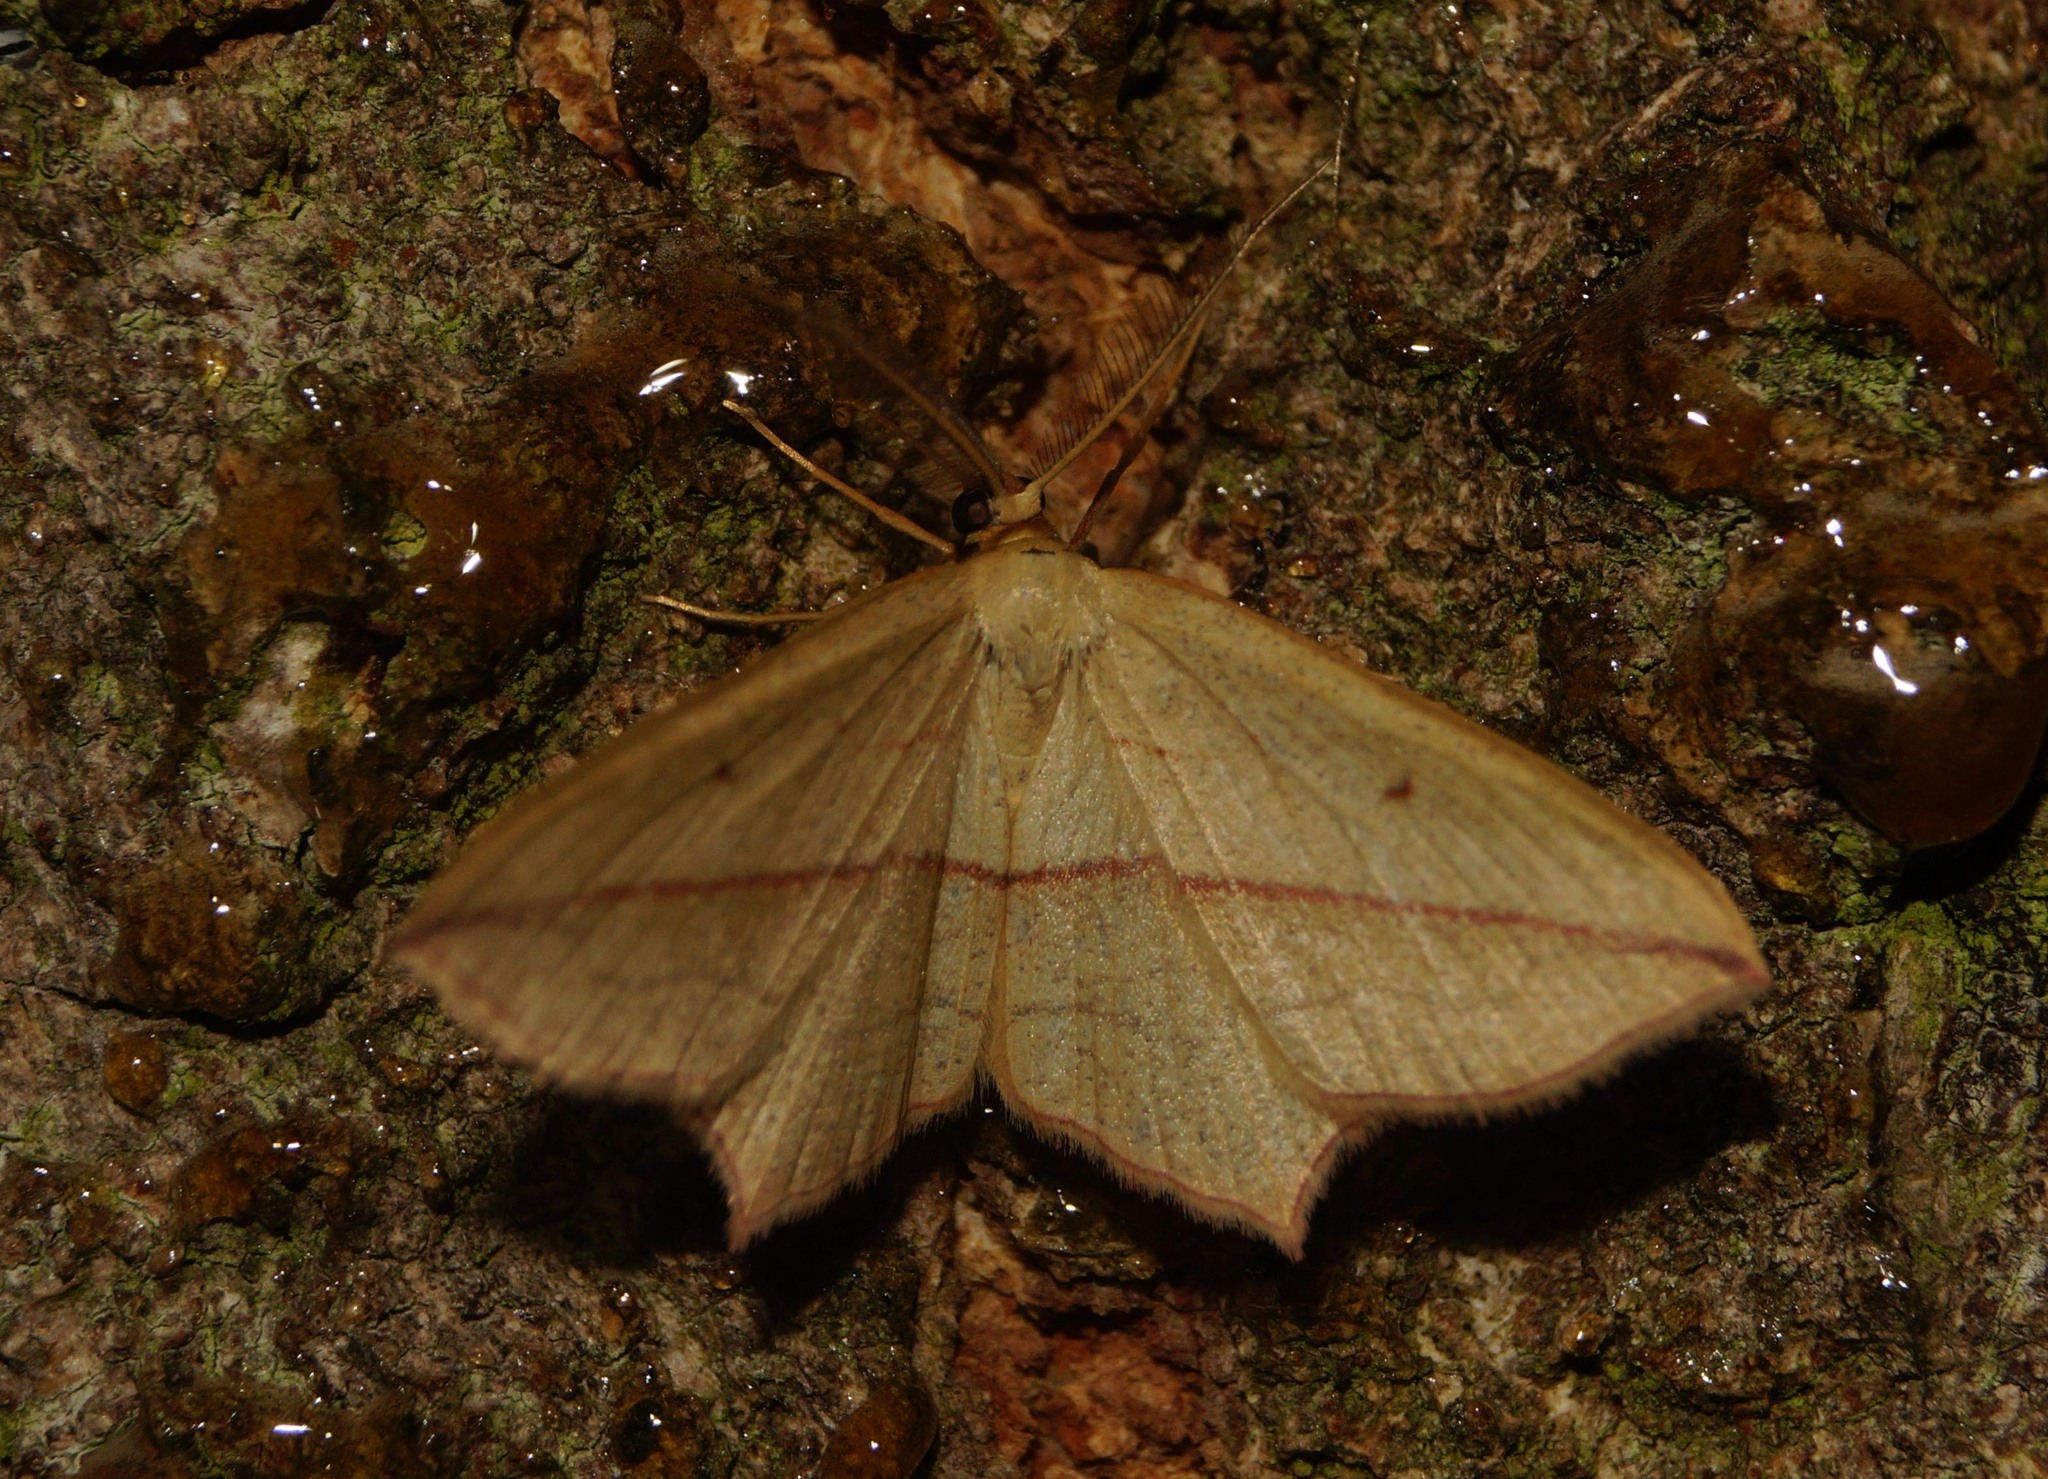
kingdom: Animalia
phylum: Arthropoda
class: Insecta
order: Lepidoptera
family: Geometridae
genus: Timandra
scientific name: Timandra comae
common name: Blood-vein
